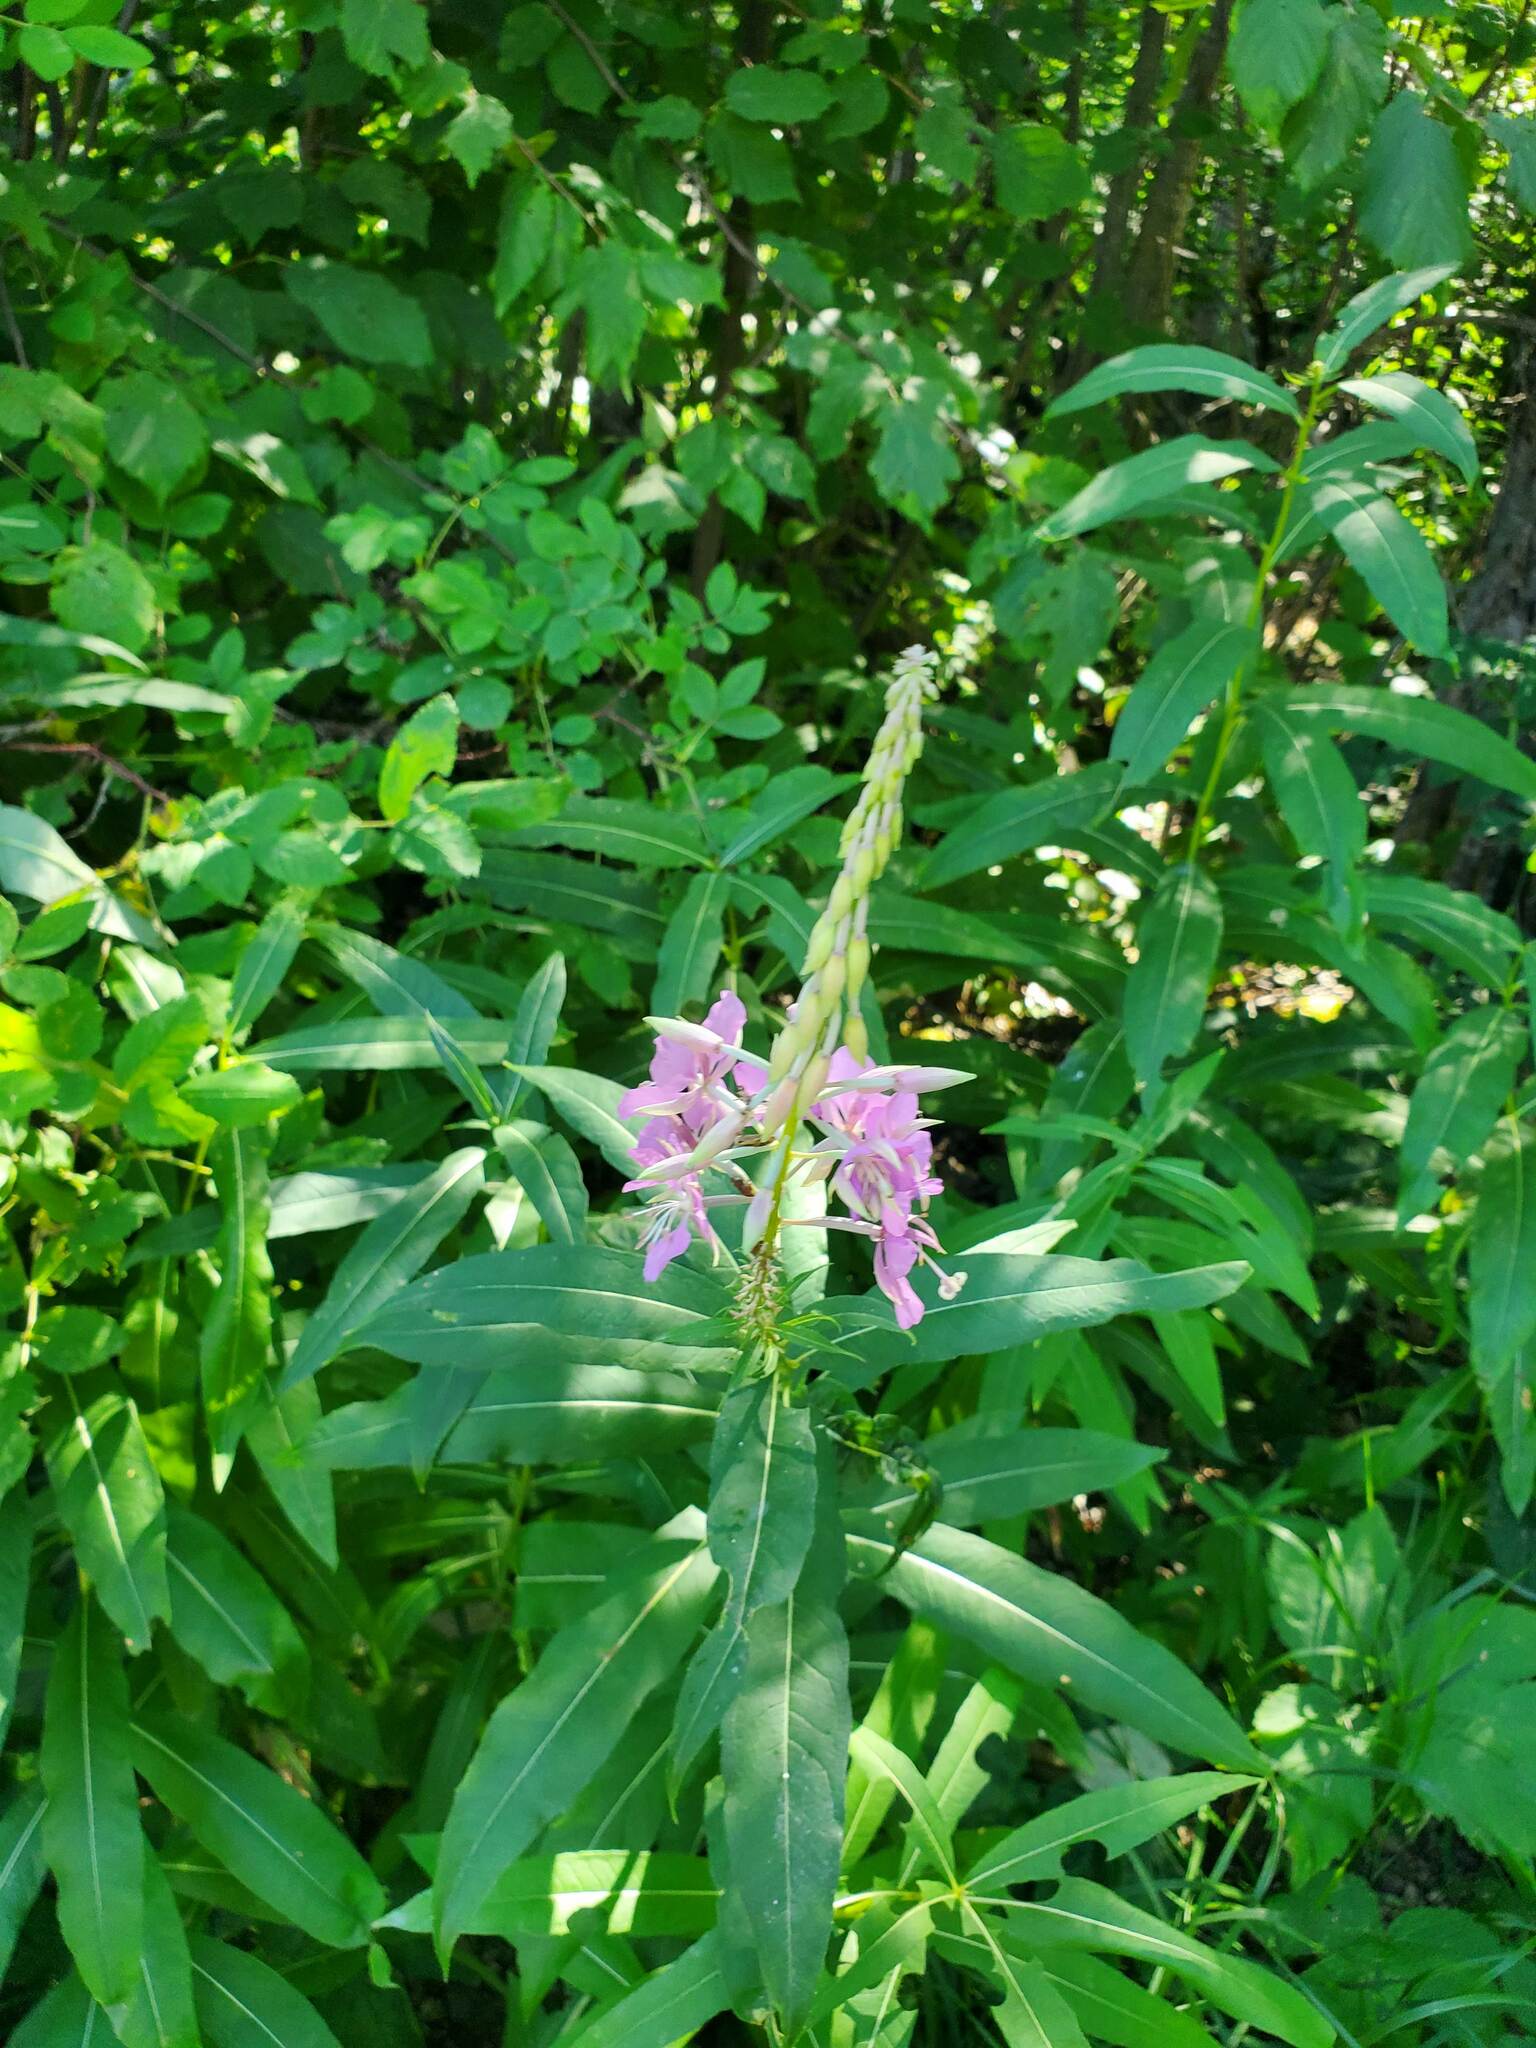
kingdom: Plantae
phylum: Tracheophyta
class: Magnoliopsida
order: Myrtales
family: Onagraceae
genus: Chamaenerion
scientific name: Chamaenerion angustifolium
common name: Fireweed
